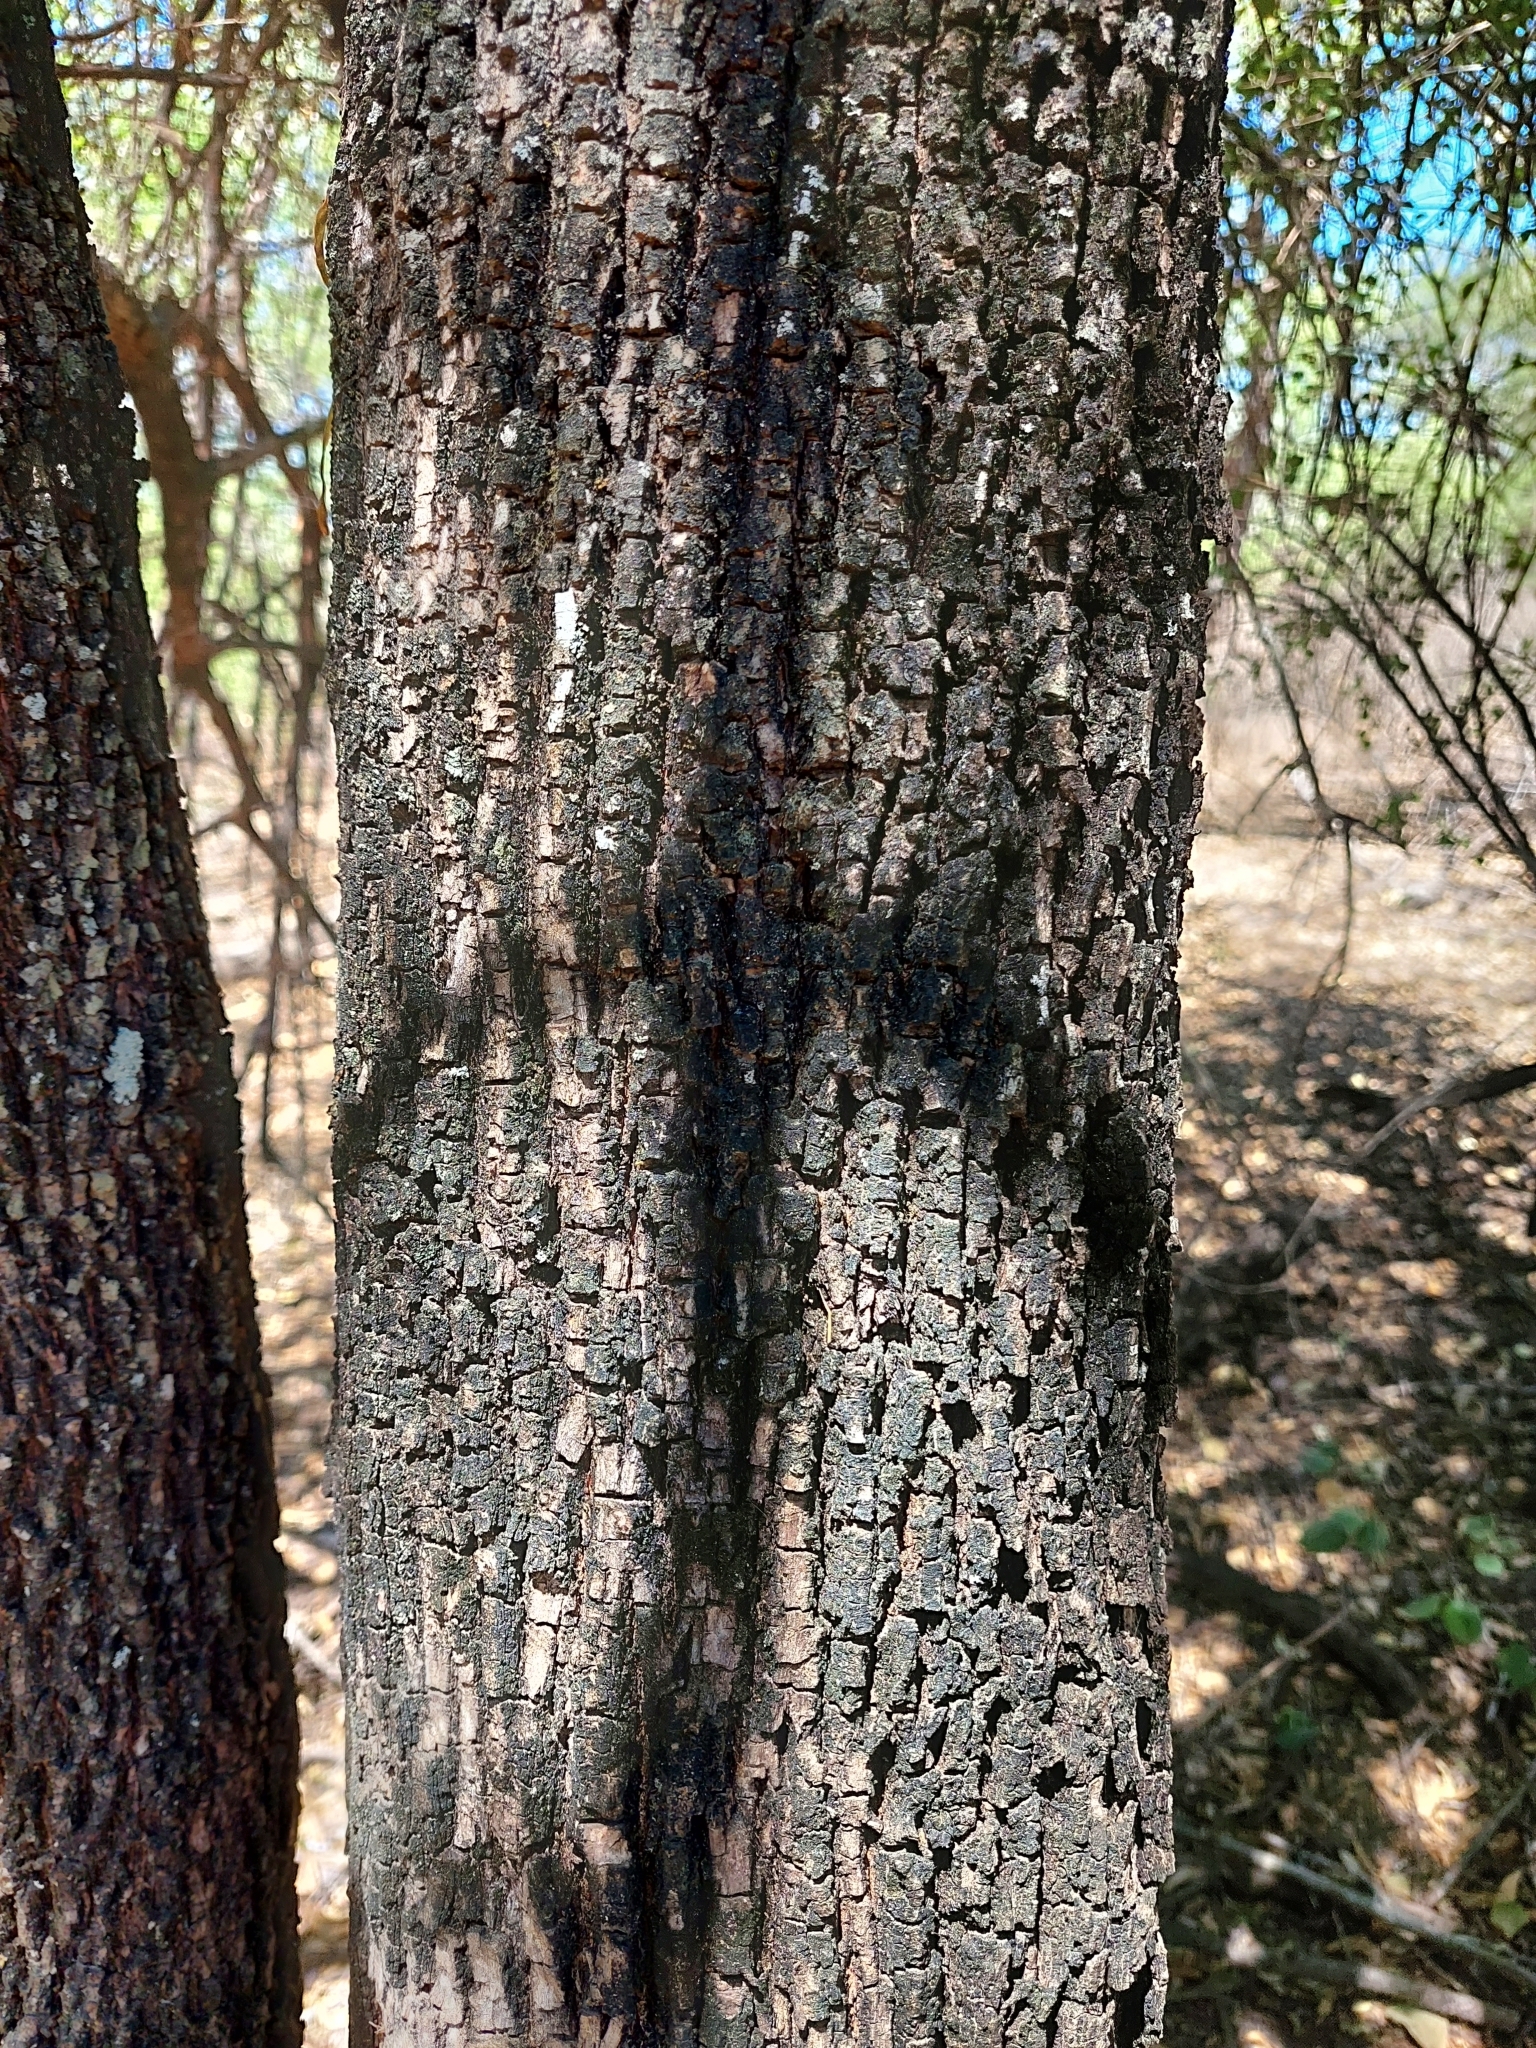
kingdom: Plantae
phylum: Tracheophyta
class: Magnoliopsida
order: Ericales
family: Sapotaceae
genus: Sideroxylon
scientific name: Sideroxylon obtusifolium
